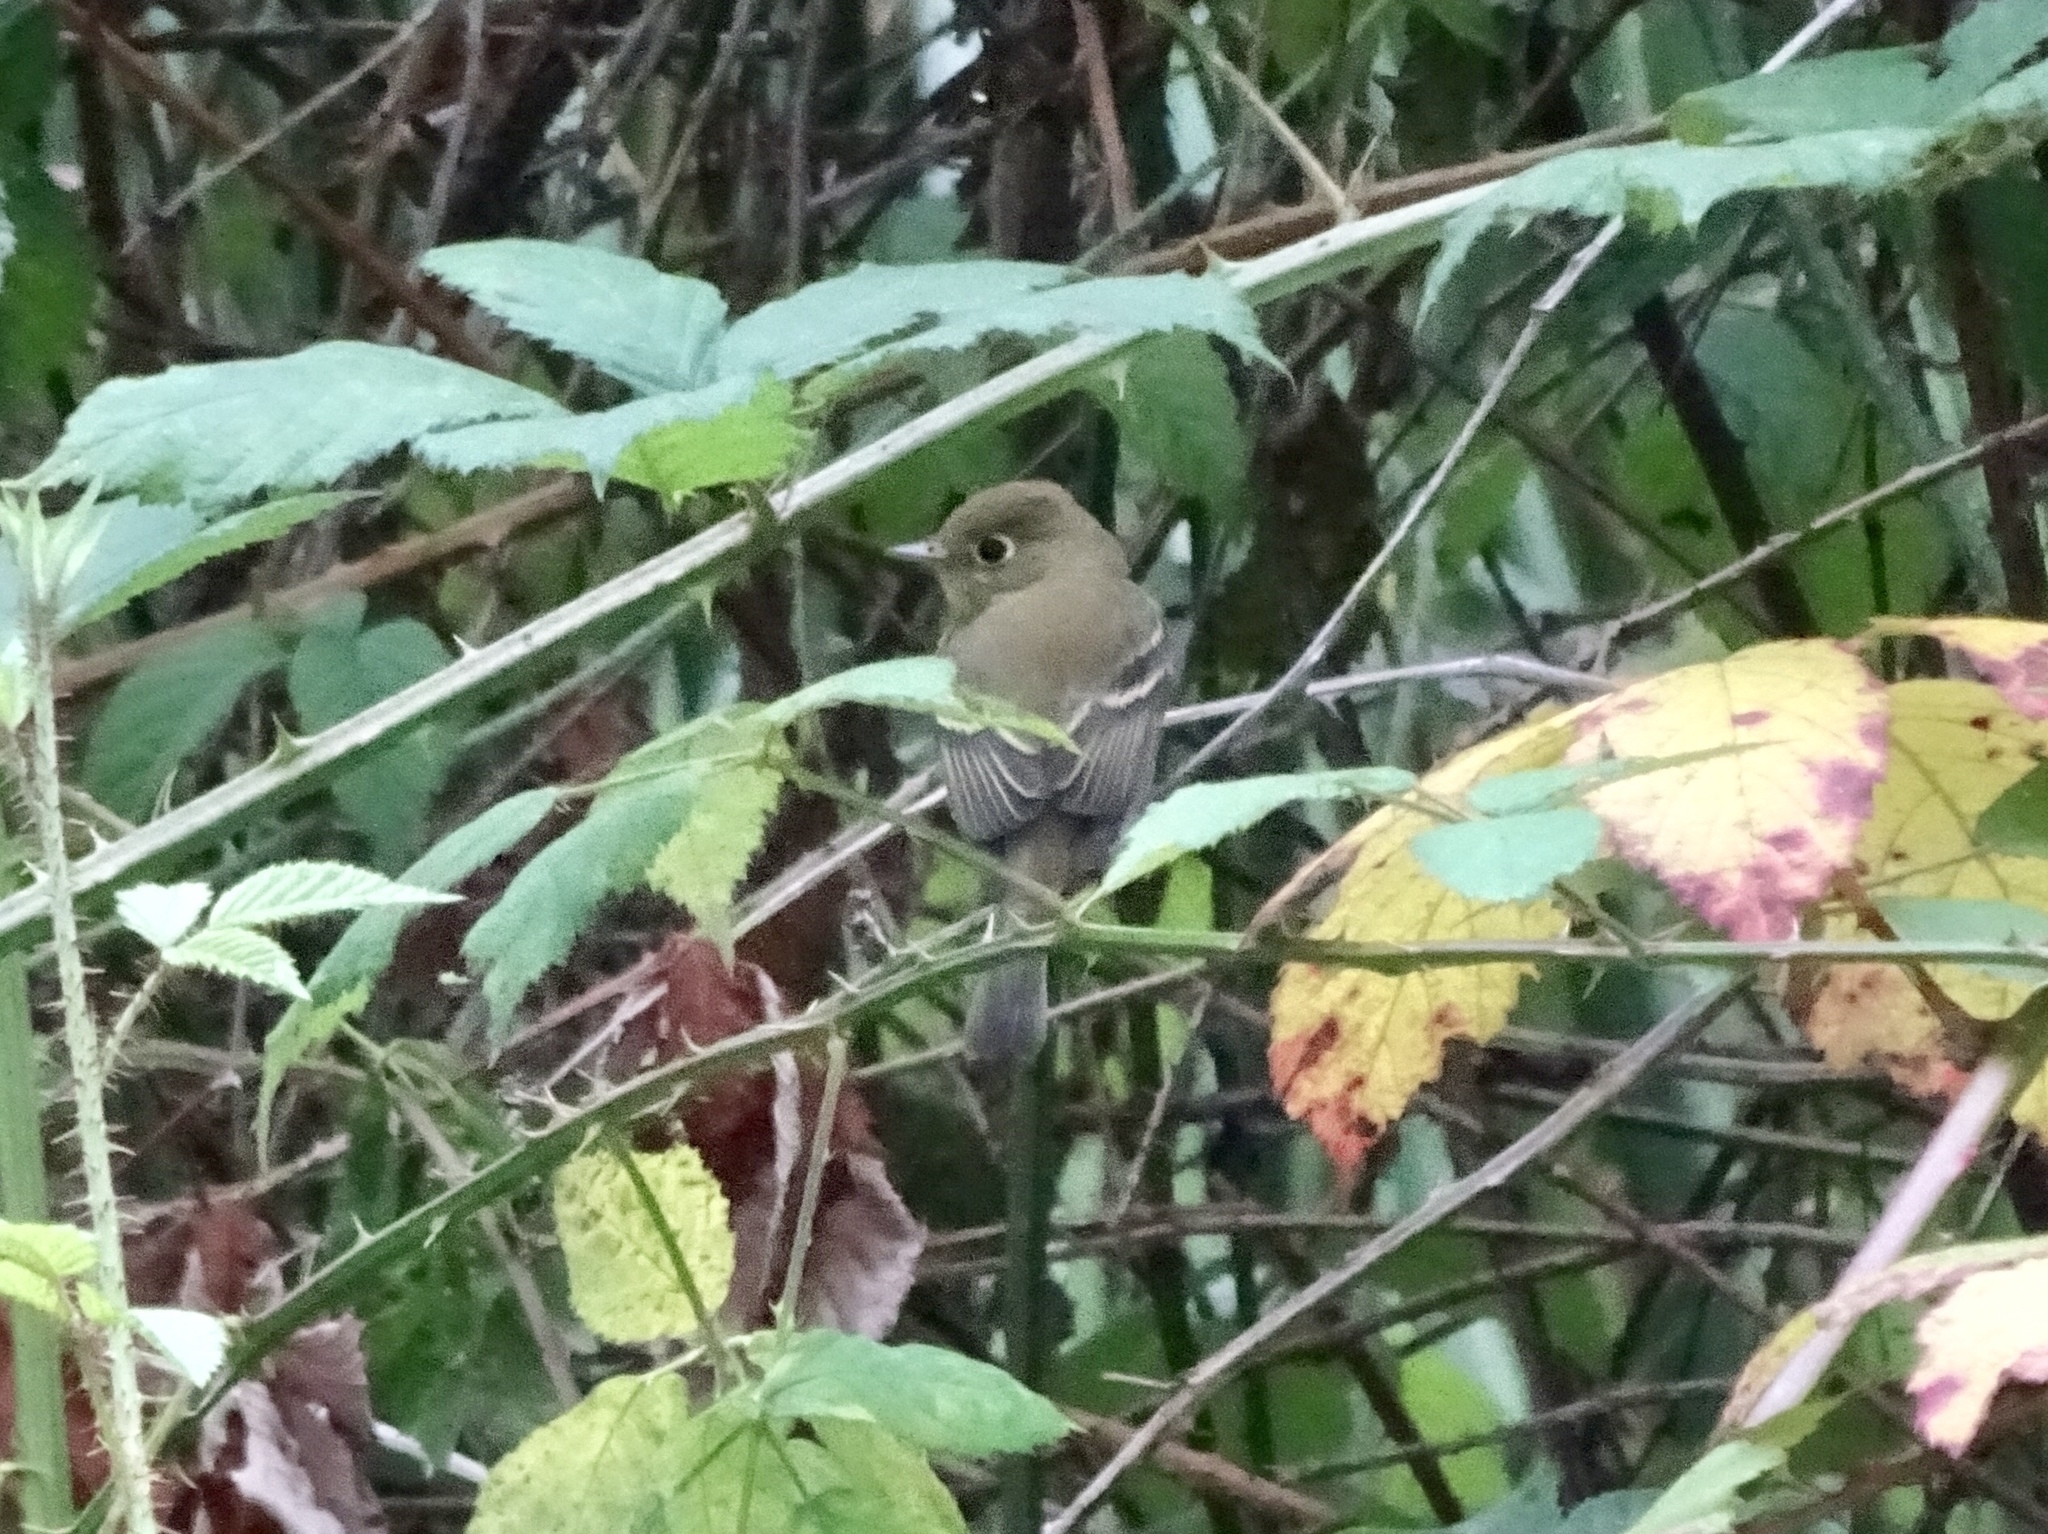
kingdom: Animalia
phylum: Chordata
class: Aves
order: Passeriformes
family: Tyrannidae
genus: Empidonax
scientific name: Empidonax difficilis
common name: Pacific-slope flycatcher
